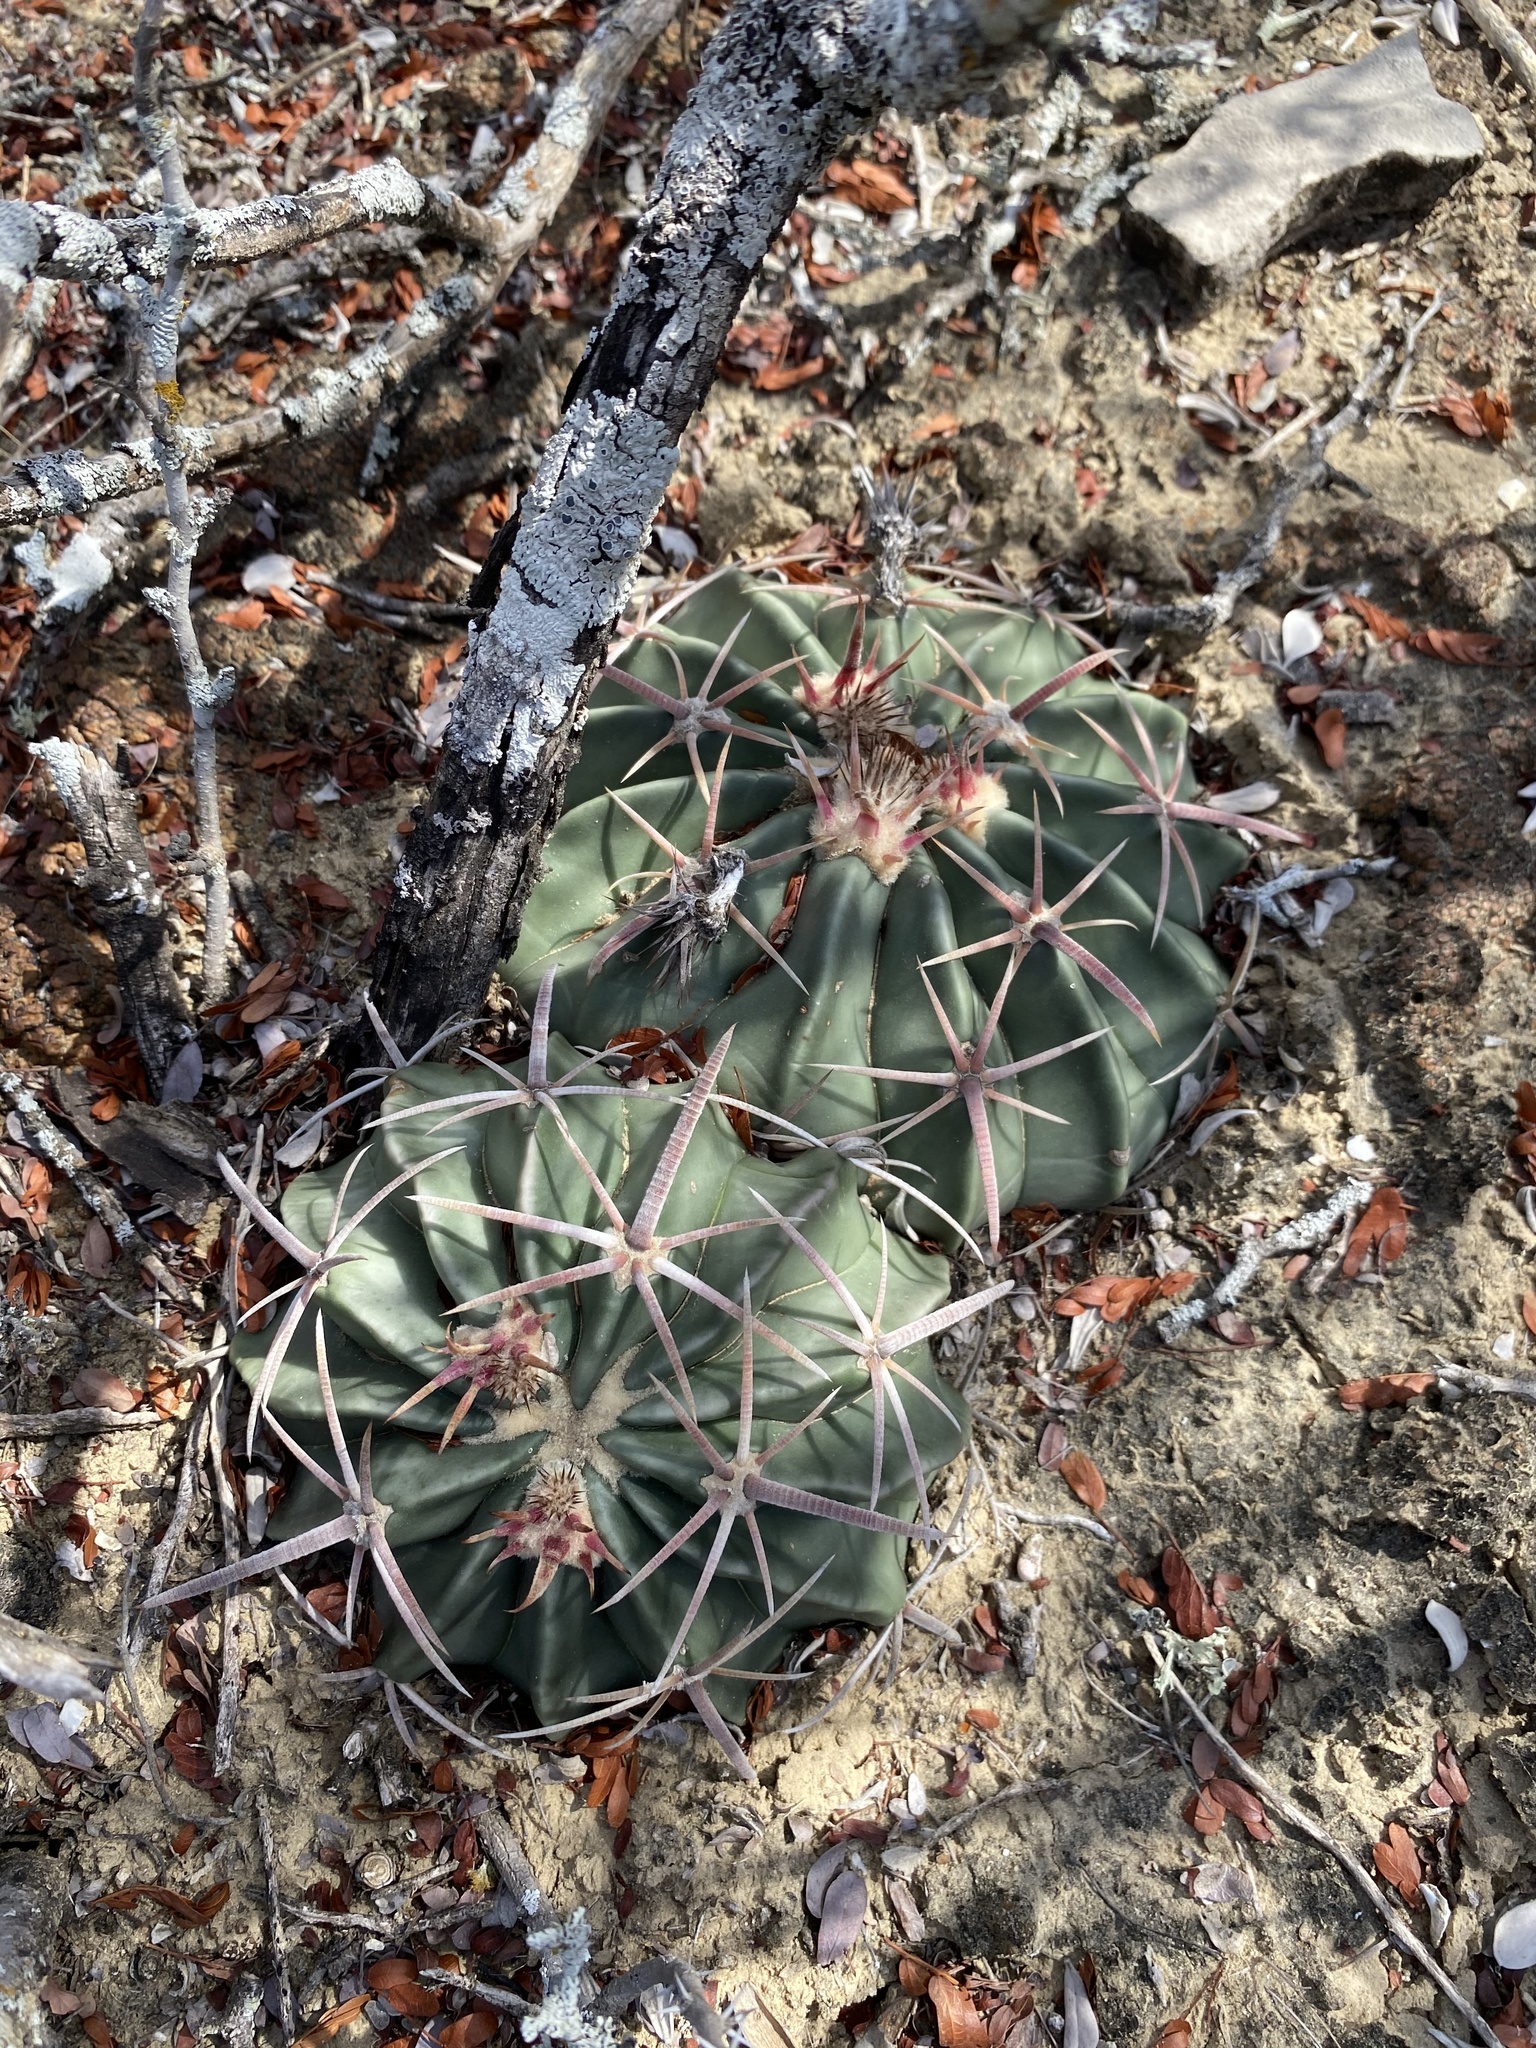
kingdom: Plantae
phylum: Tracheophyta
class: Magnoliopsida
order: Caryophyllales
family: Cactaceae
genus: Echinocactus
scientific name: Echinocactus texensis
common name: Devil's pincushion
